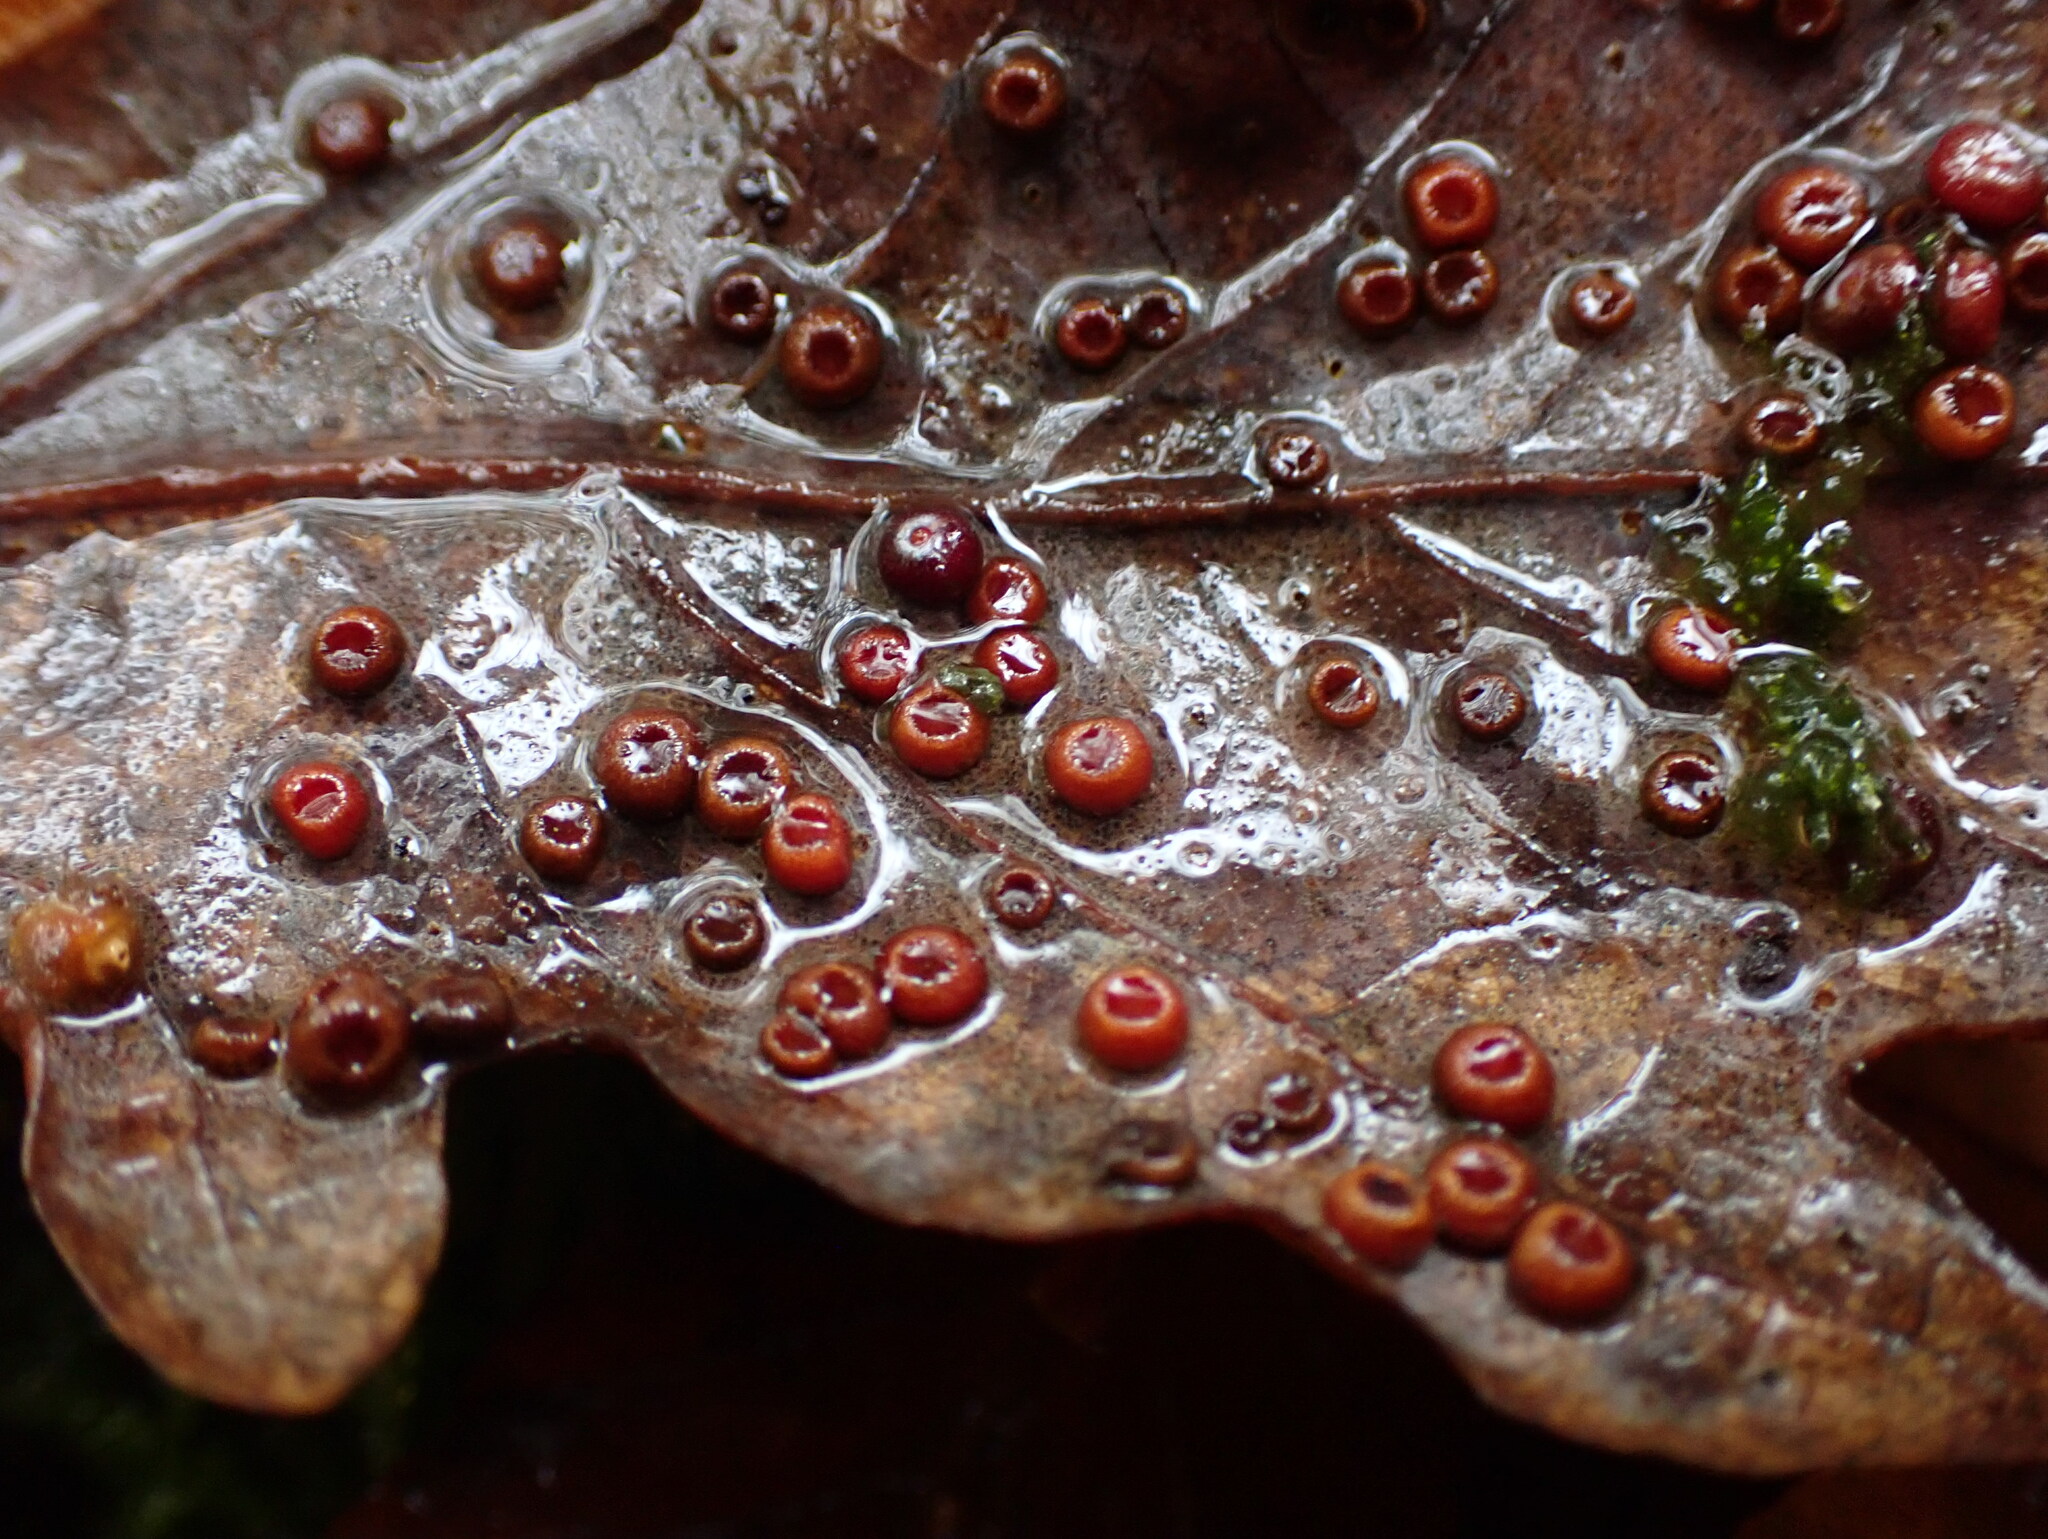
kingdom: Animalia
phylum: Arthropoda
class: Insecta
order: Hymenoptera
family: Cynipidae
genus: Neuroterus
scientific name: Neuroterus numismalis
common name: Silk-button spangle gall
